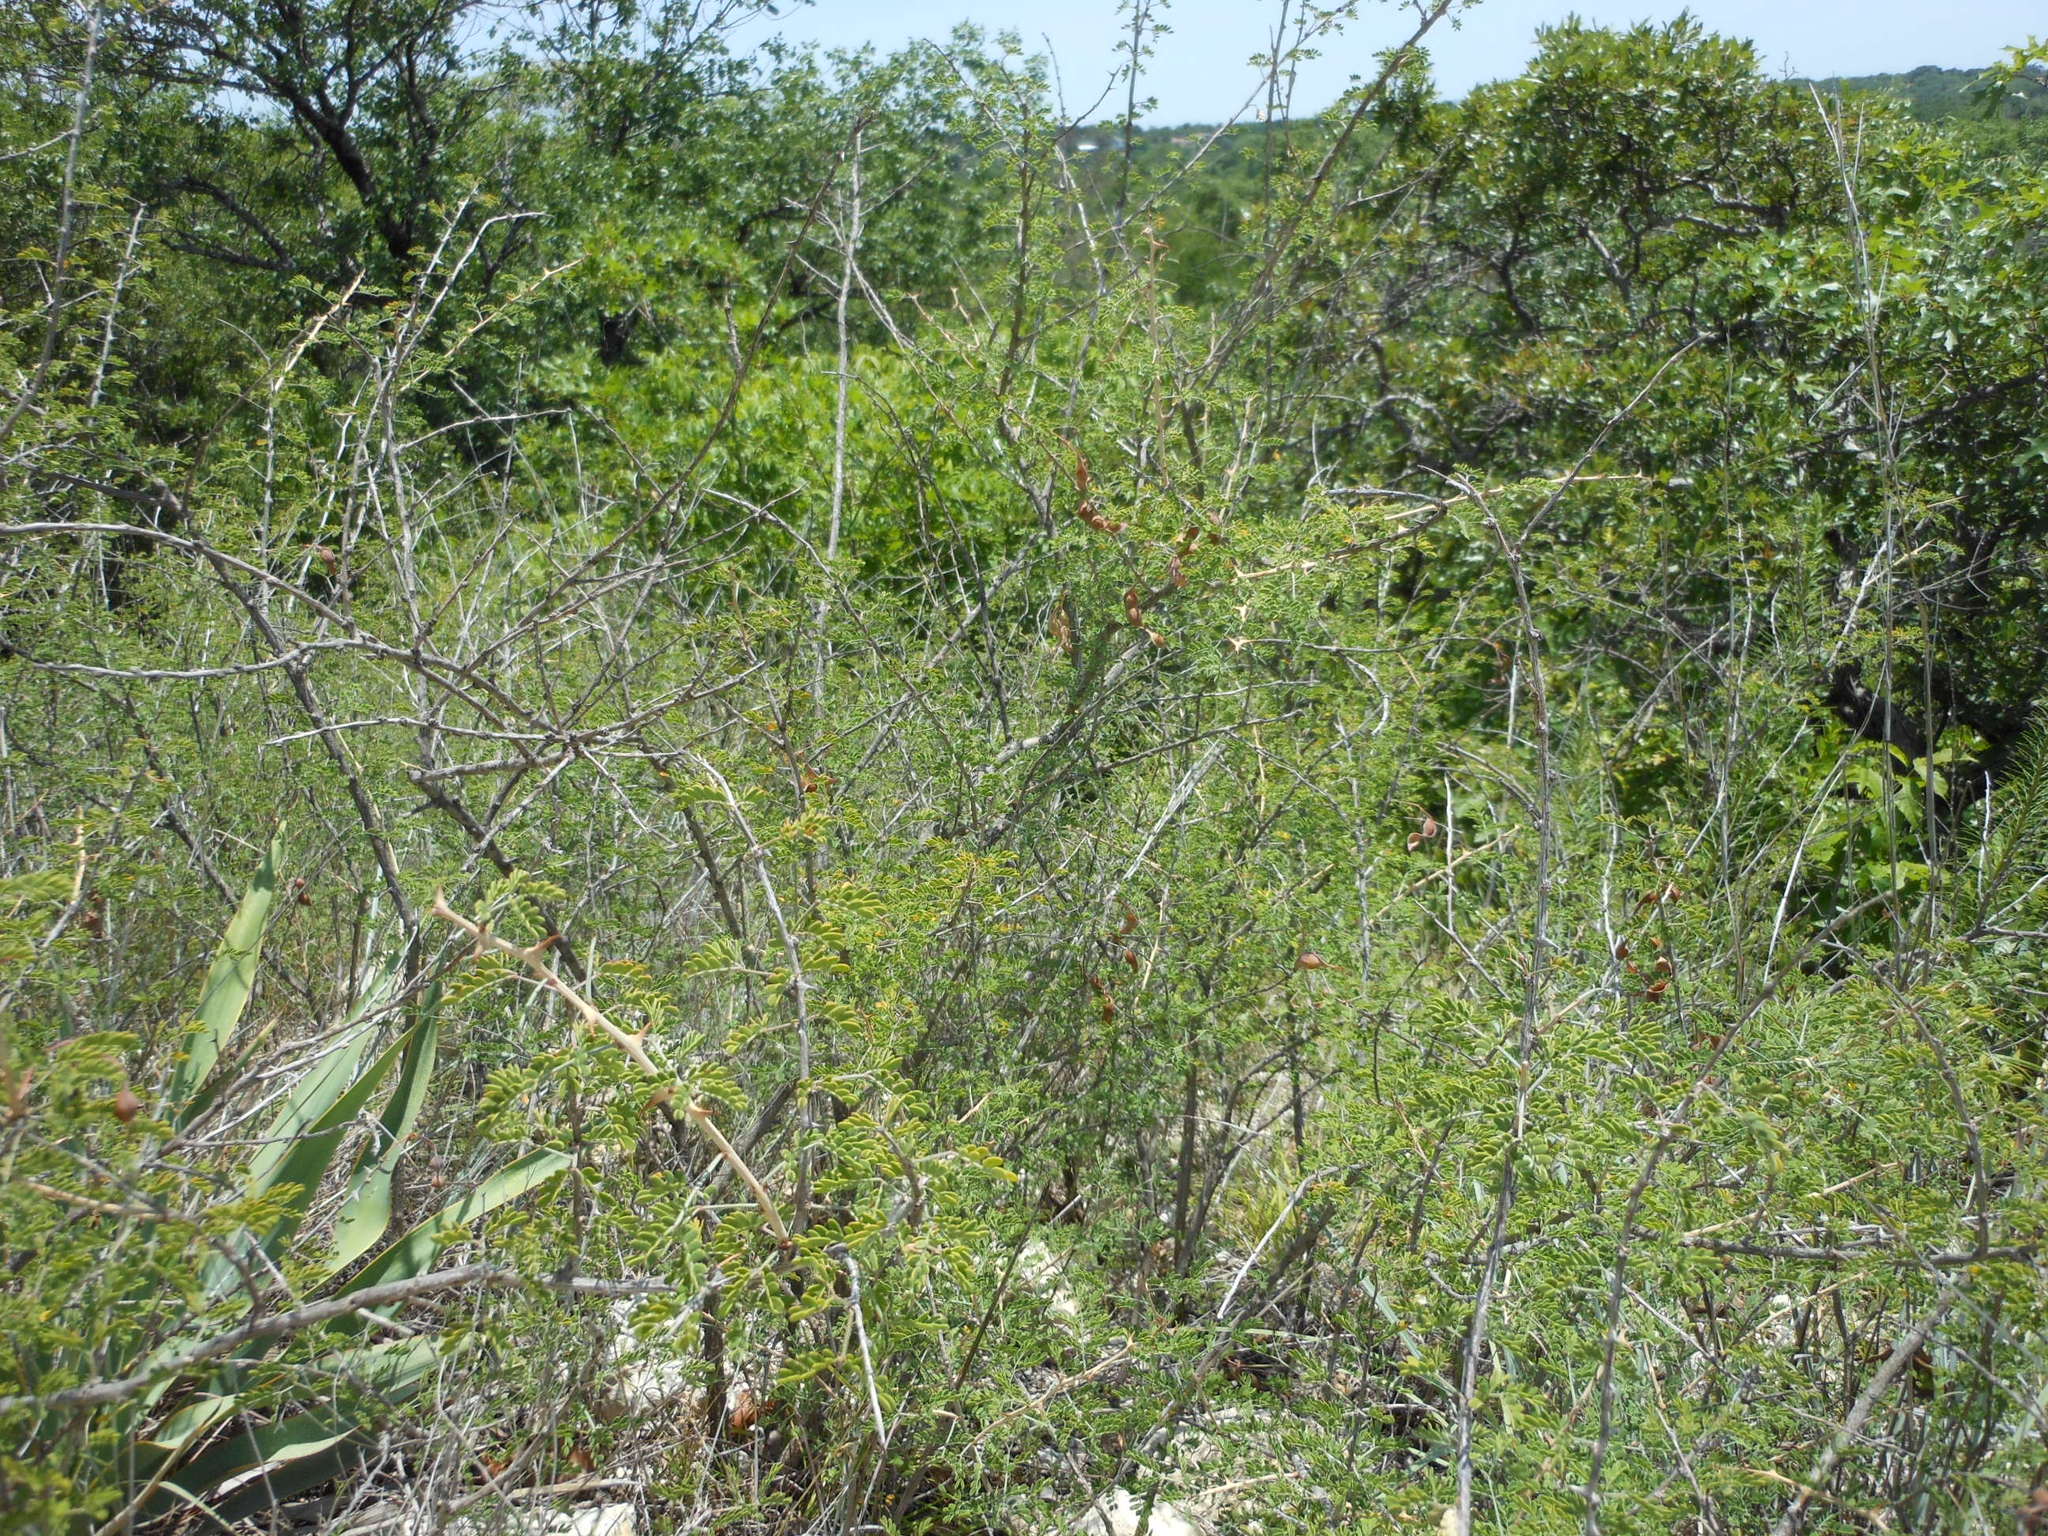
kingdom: Plantae
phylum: Tracheophyta
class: Magnoliopsida
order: Fabales
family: Fabaceae
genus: Mimosa
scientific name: Mimosa borealis
